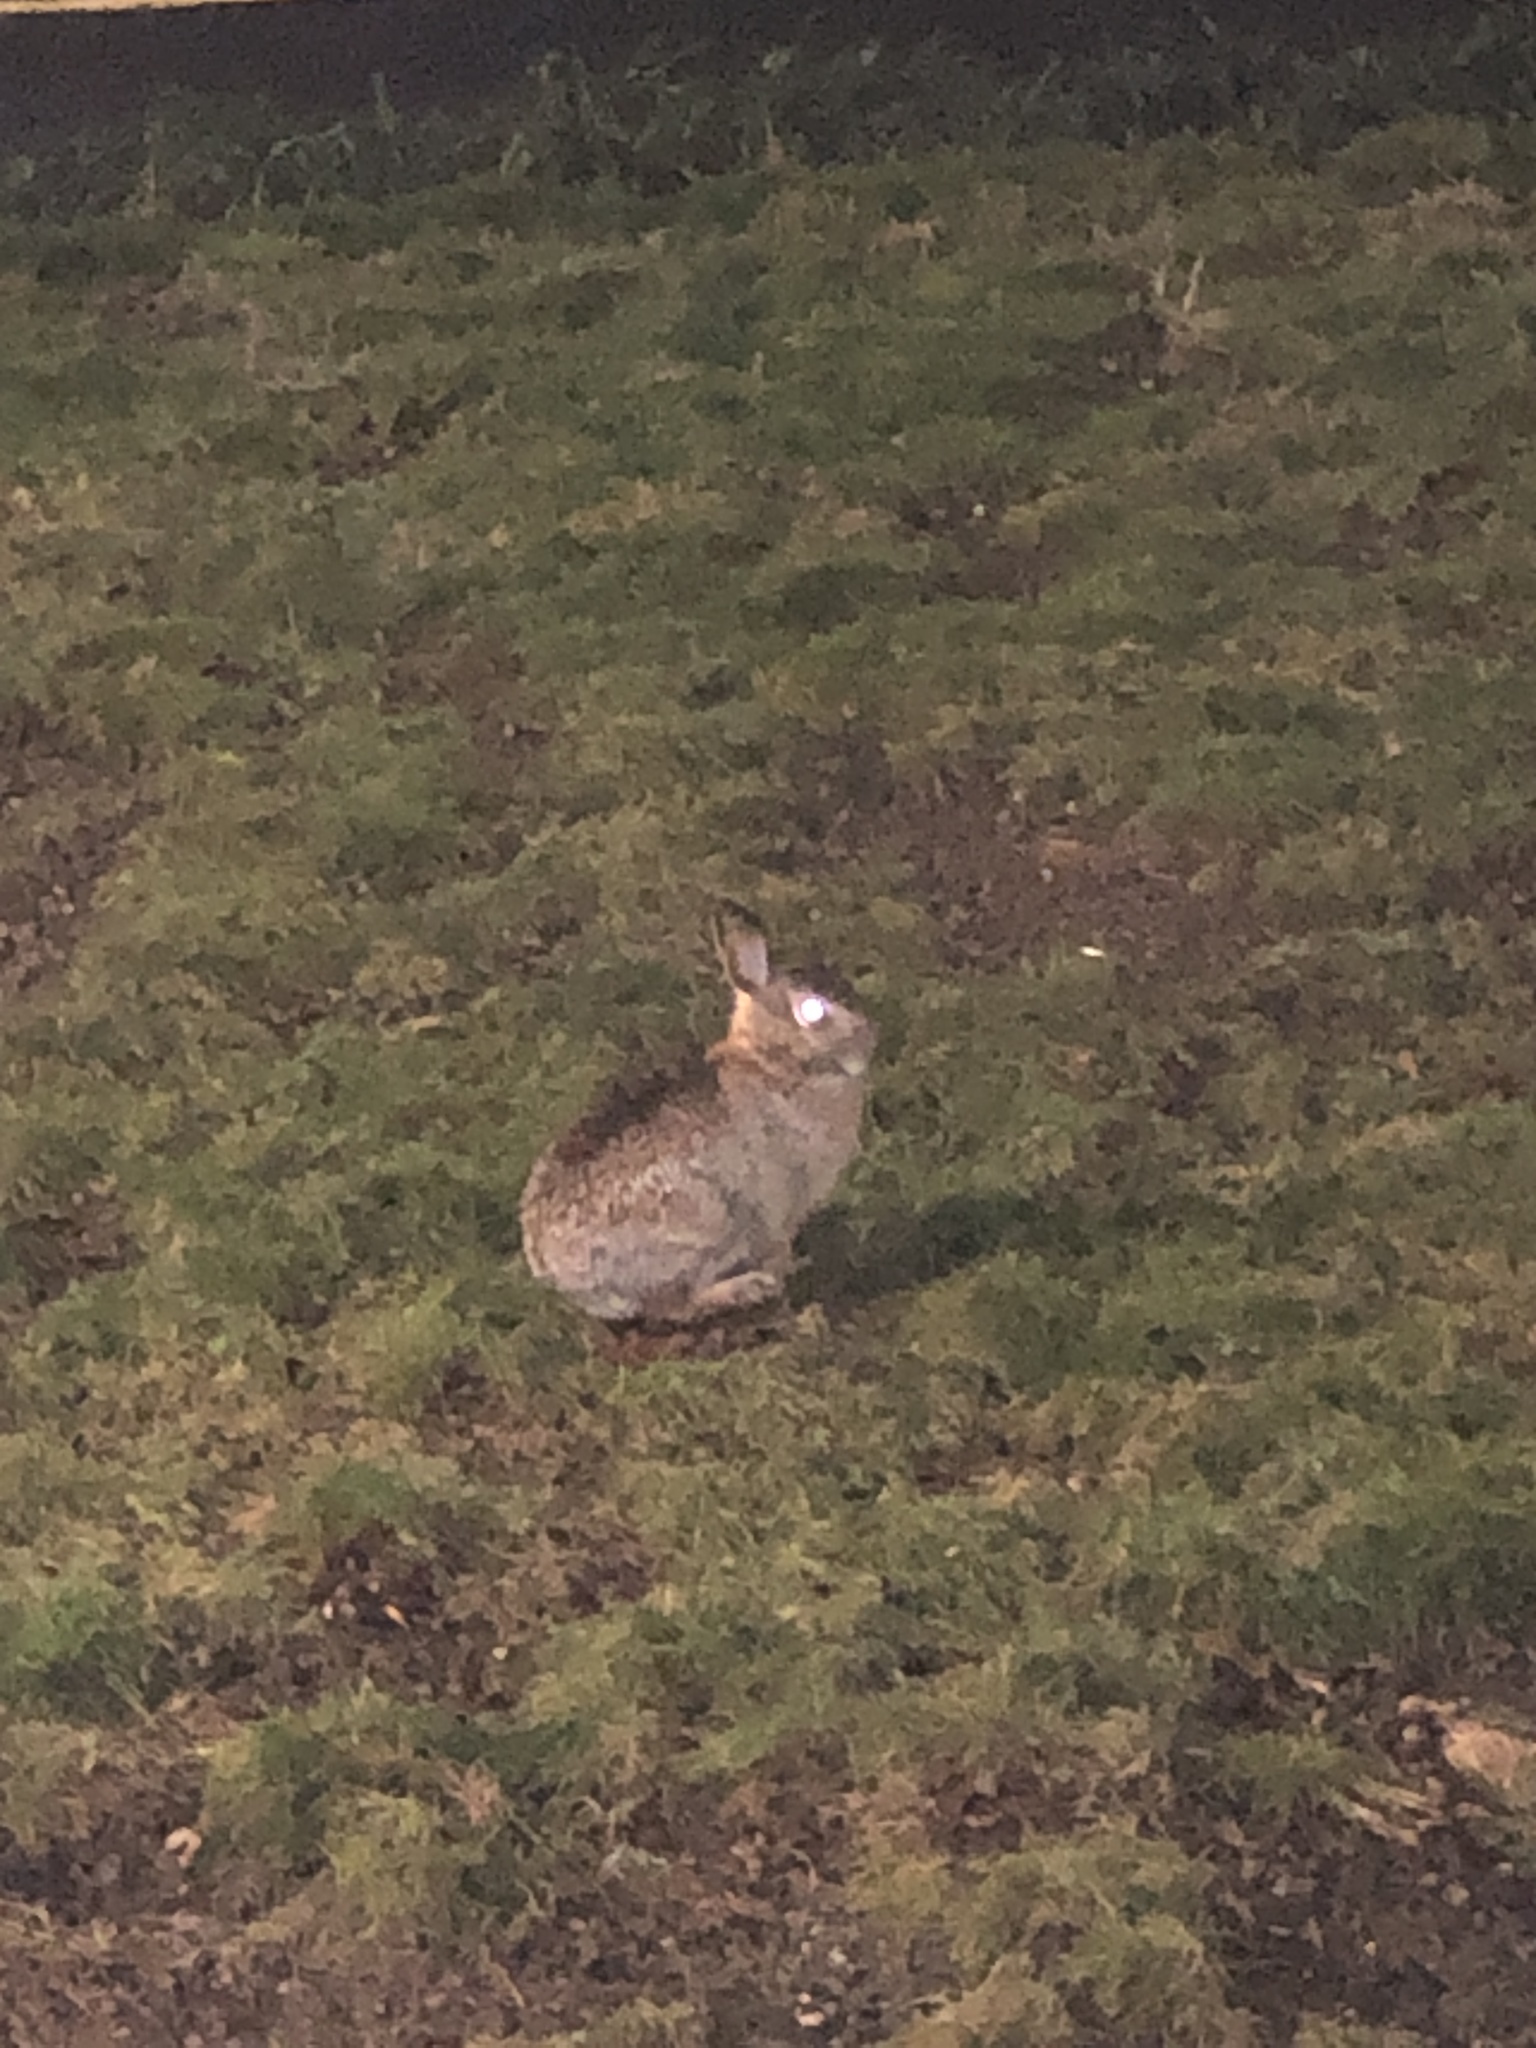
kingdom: Animalia
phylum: Chordata
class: Mammalia
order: Lagomorpha
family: Leporidae
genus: Sylvilagus
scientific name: Sylvilagus floridanus
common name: Eastern cottontail
